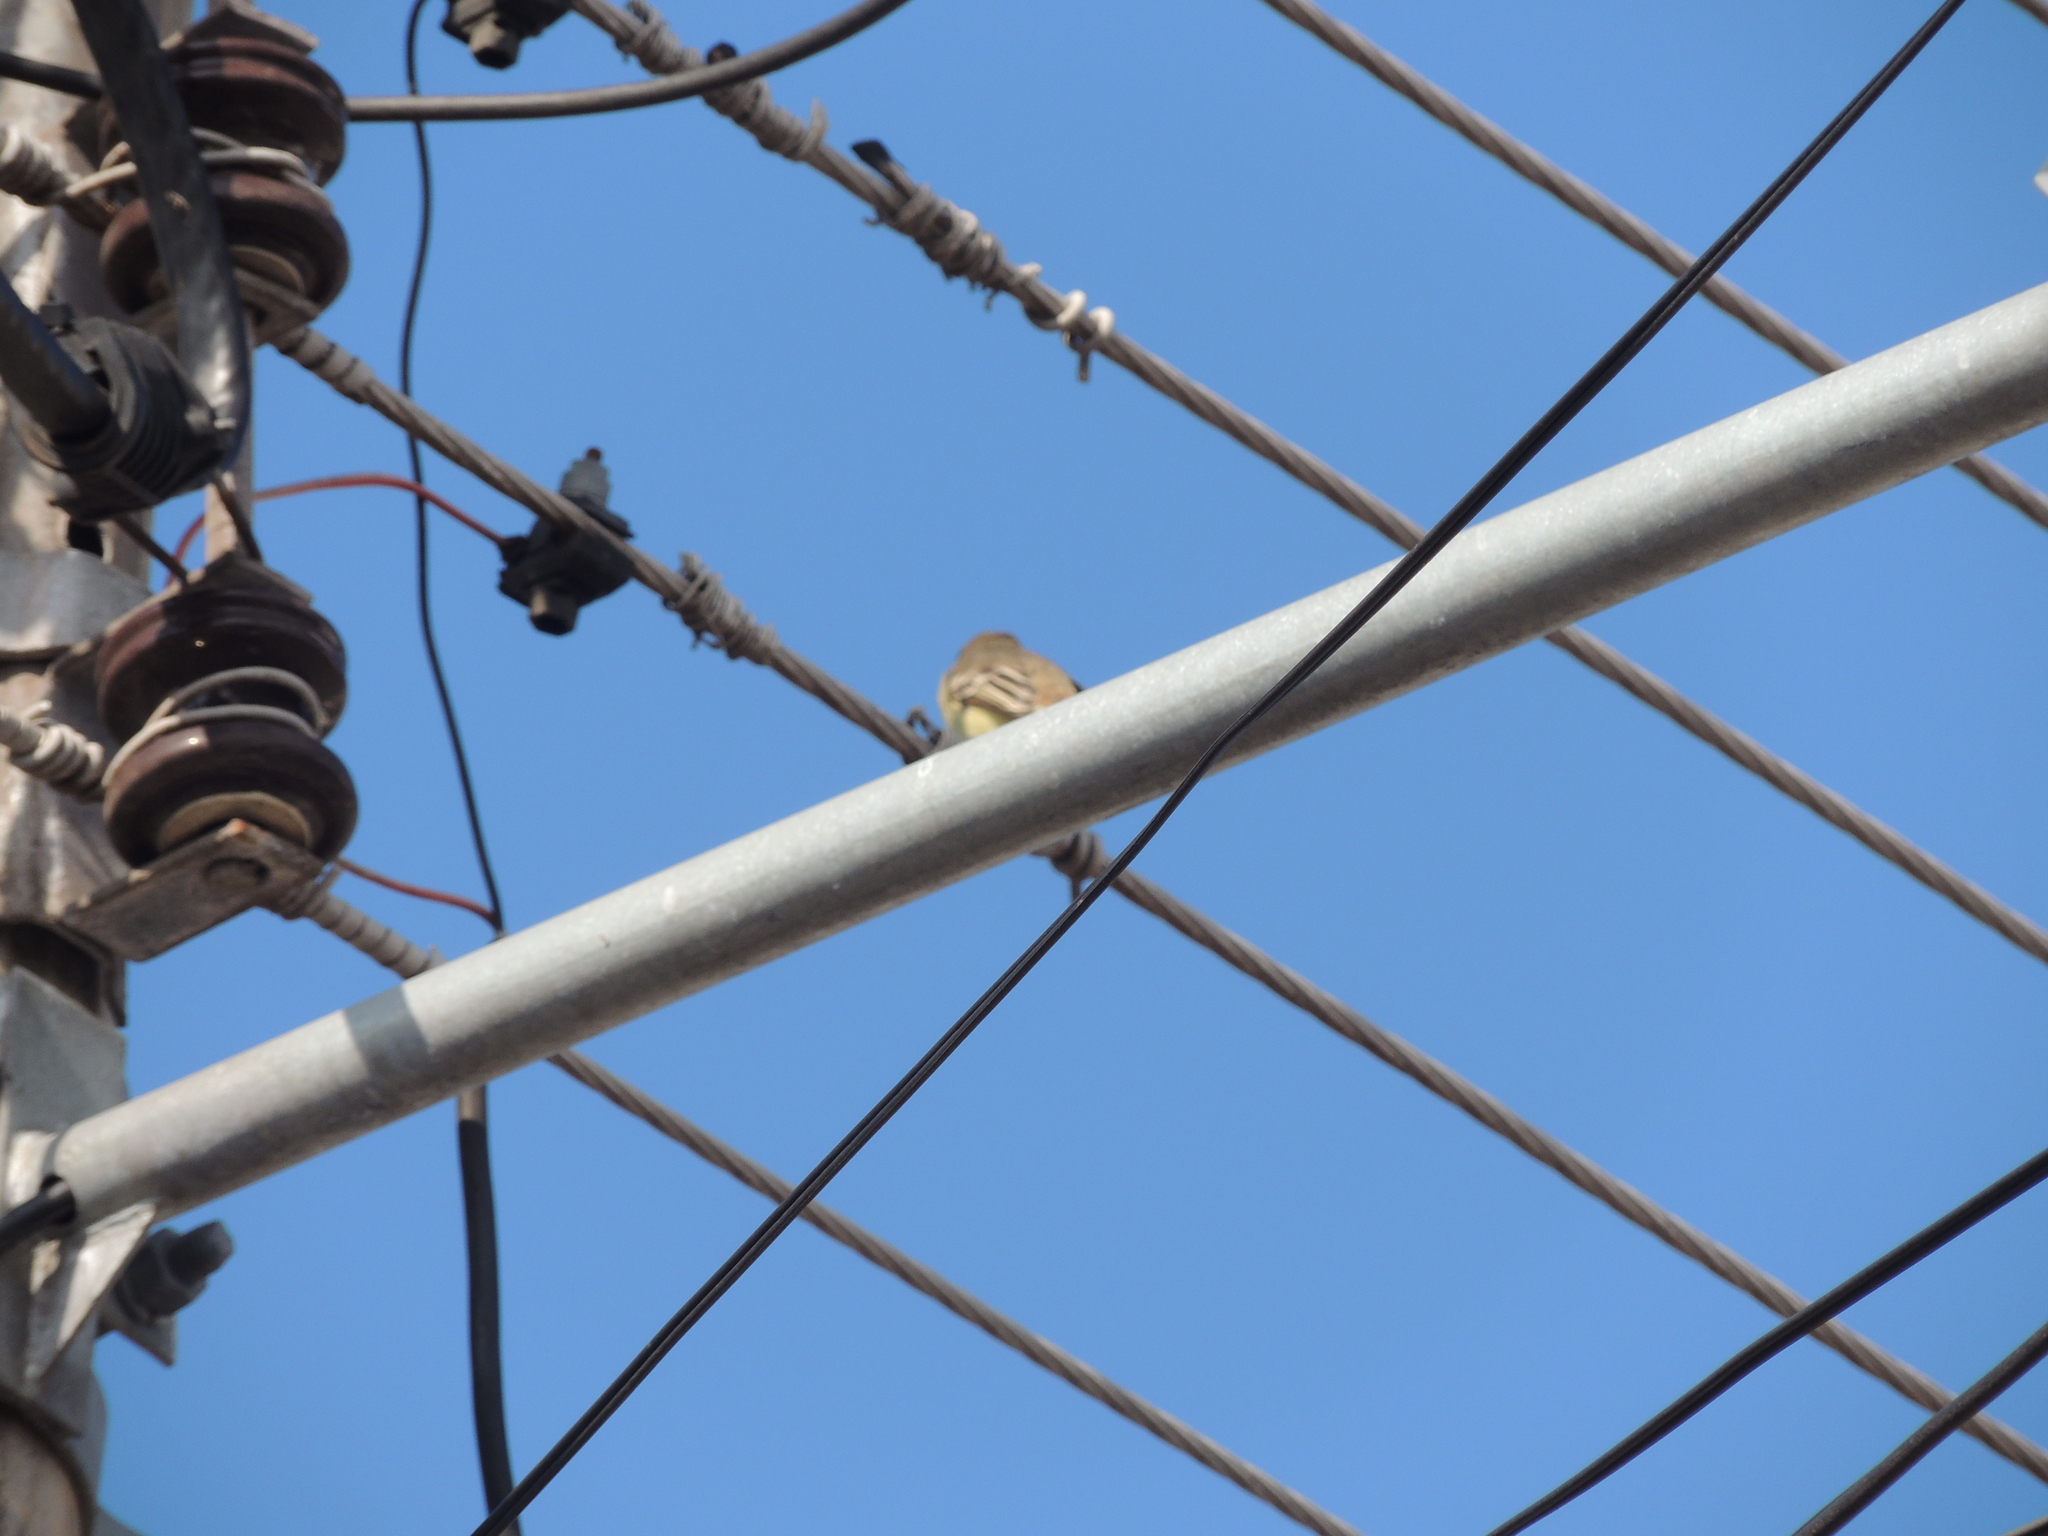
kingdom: Animalia
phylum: Chordata
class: Aves
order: Passeriformes
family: Tyrannidae
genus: Myiarchus
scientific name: Myiarchus magnirostris
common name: Galapagos flycatcher
